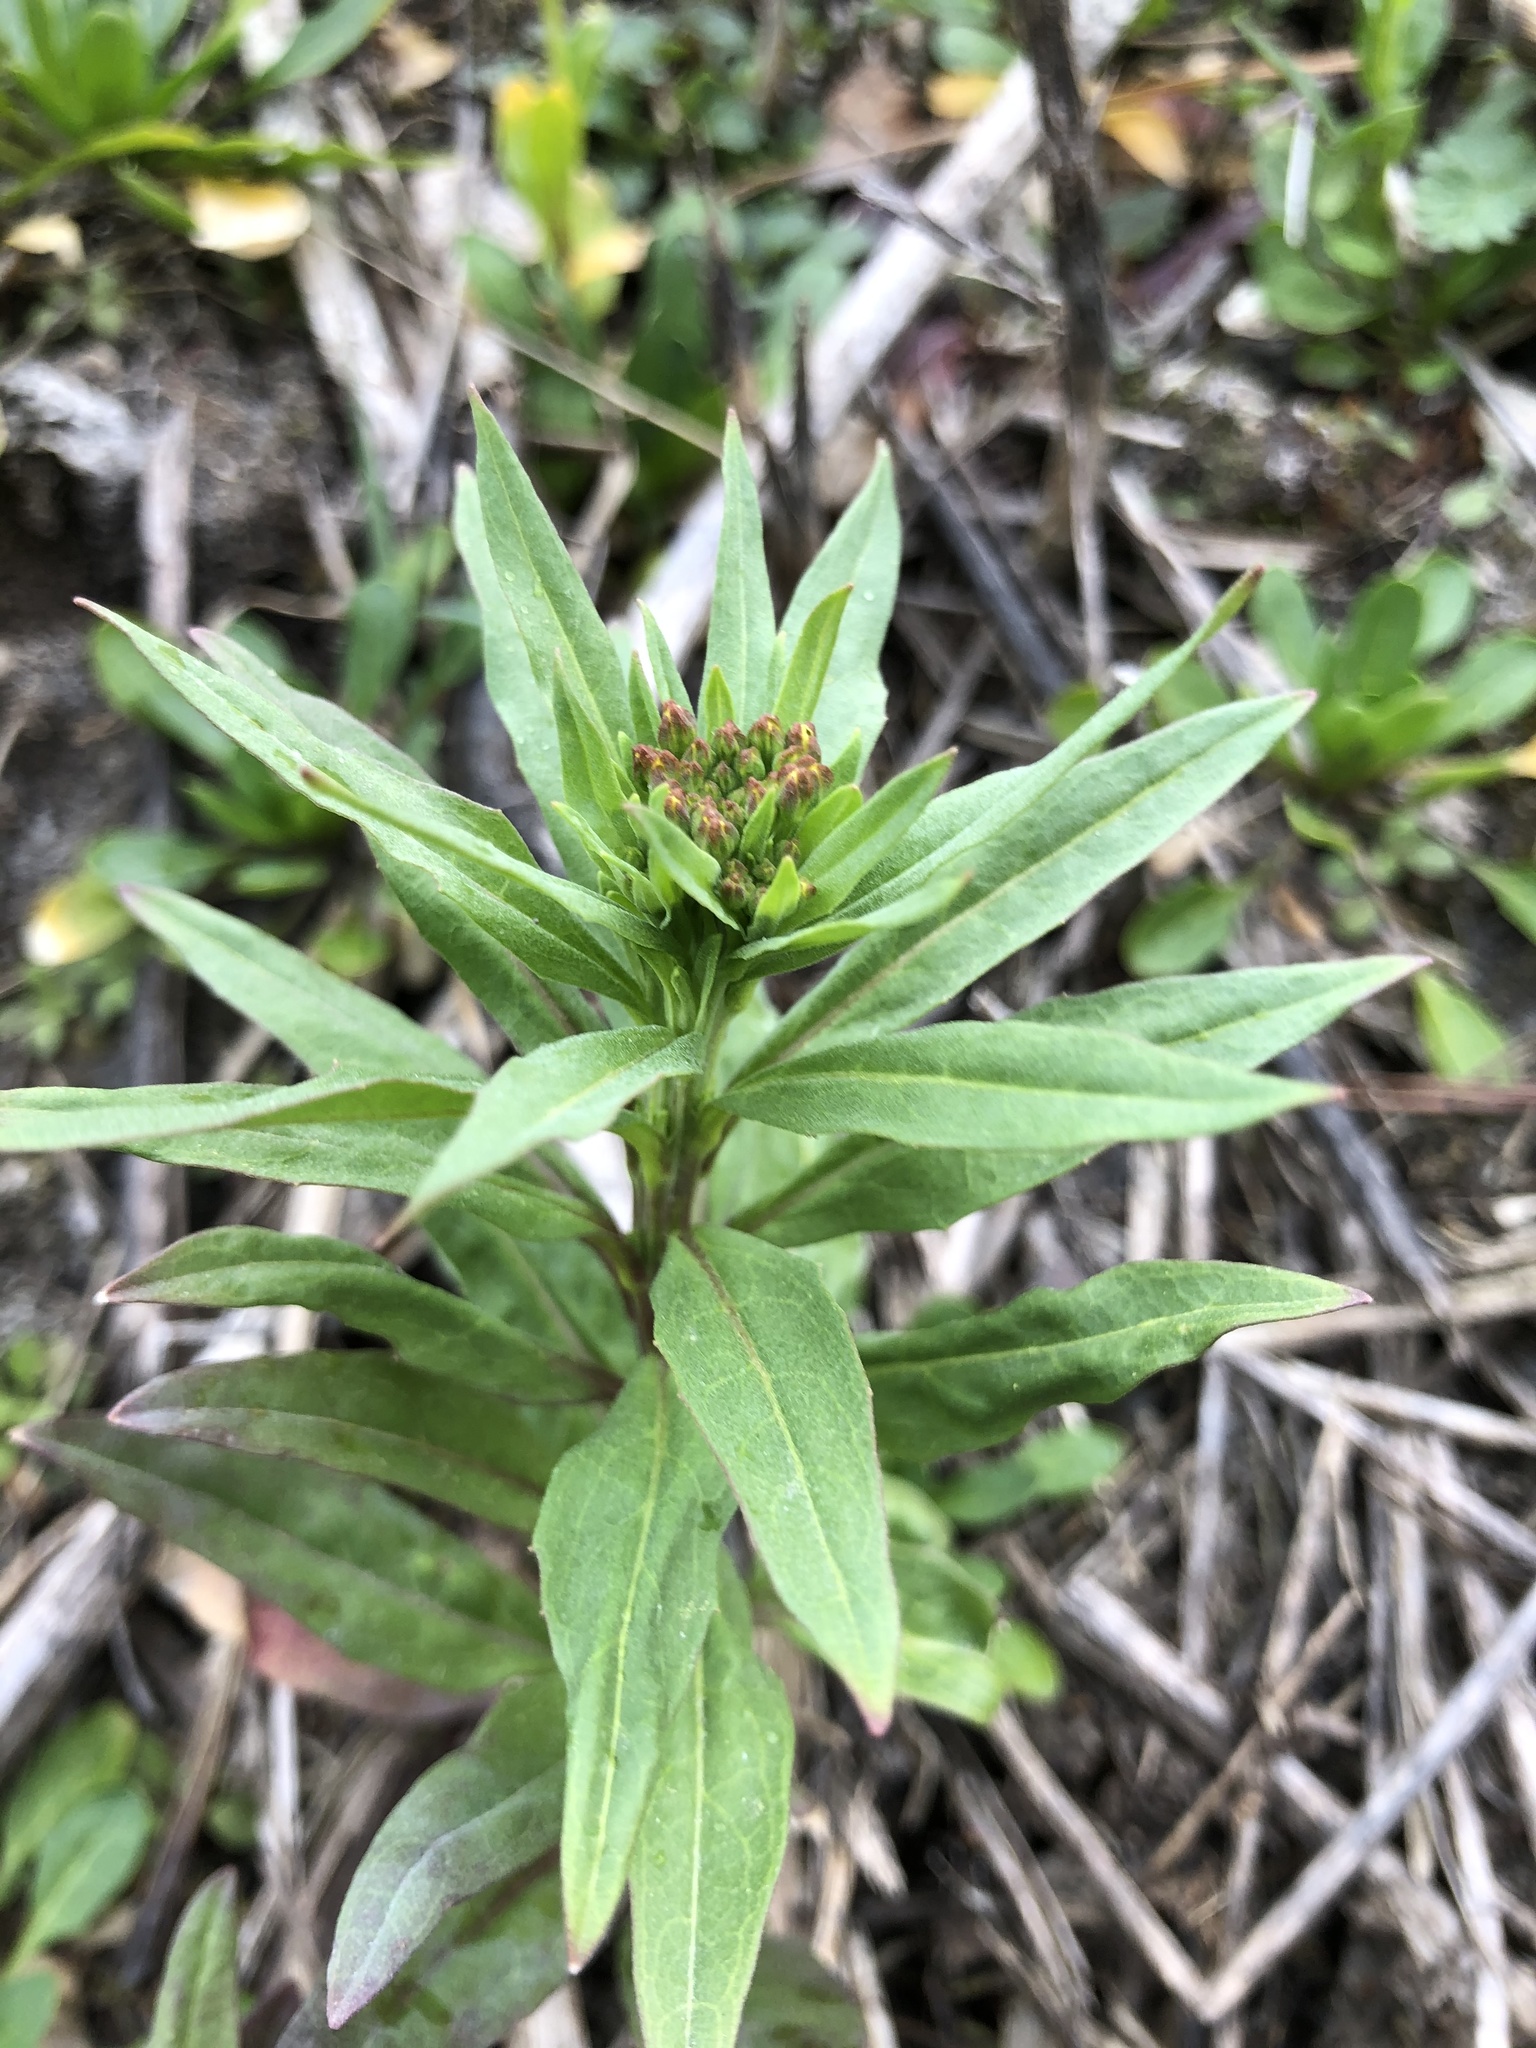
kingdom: Plantae
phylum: Tracheophyta
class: Magnoliopsida
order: Brassicales
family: Brassicaceae
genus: Erysimum
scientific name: Erysimum cheiranthoides
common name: Treacle mustard
